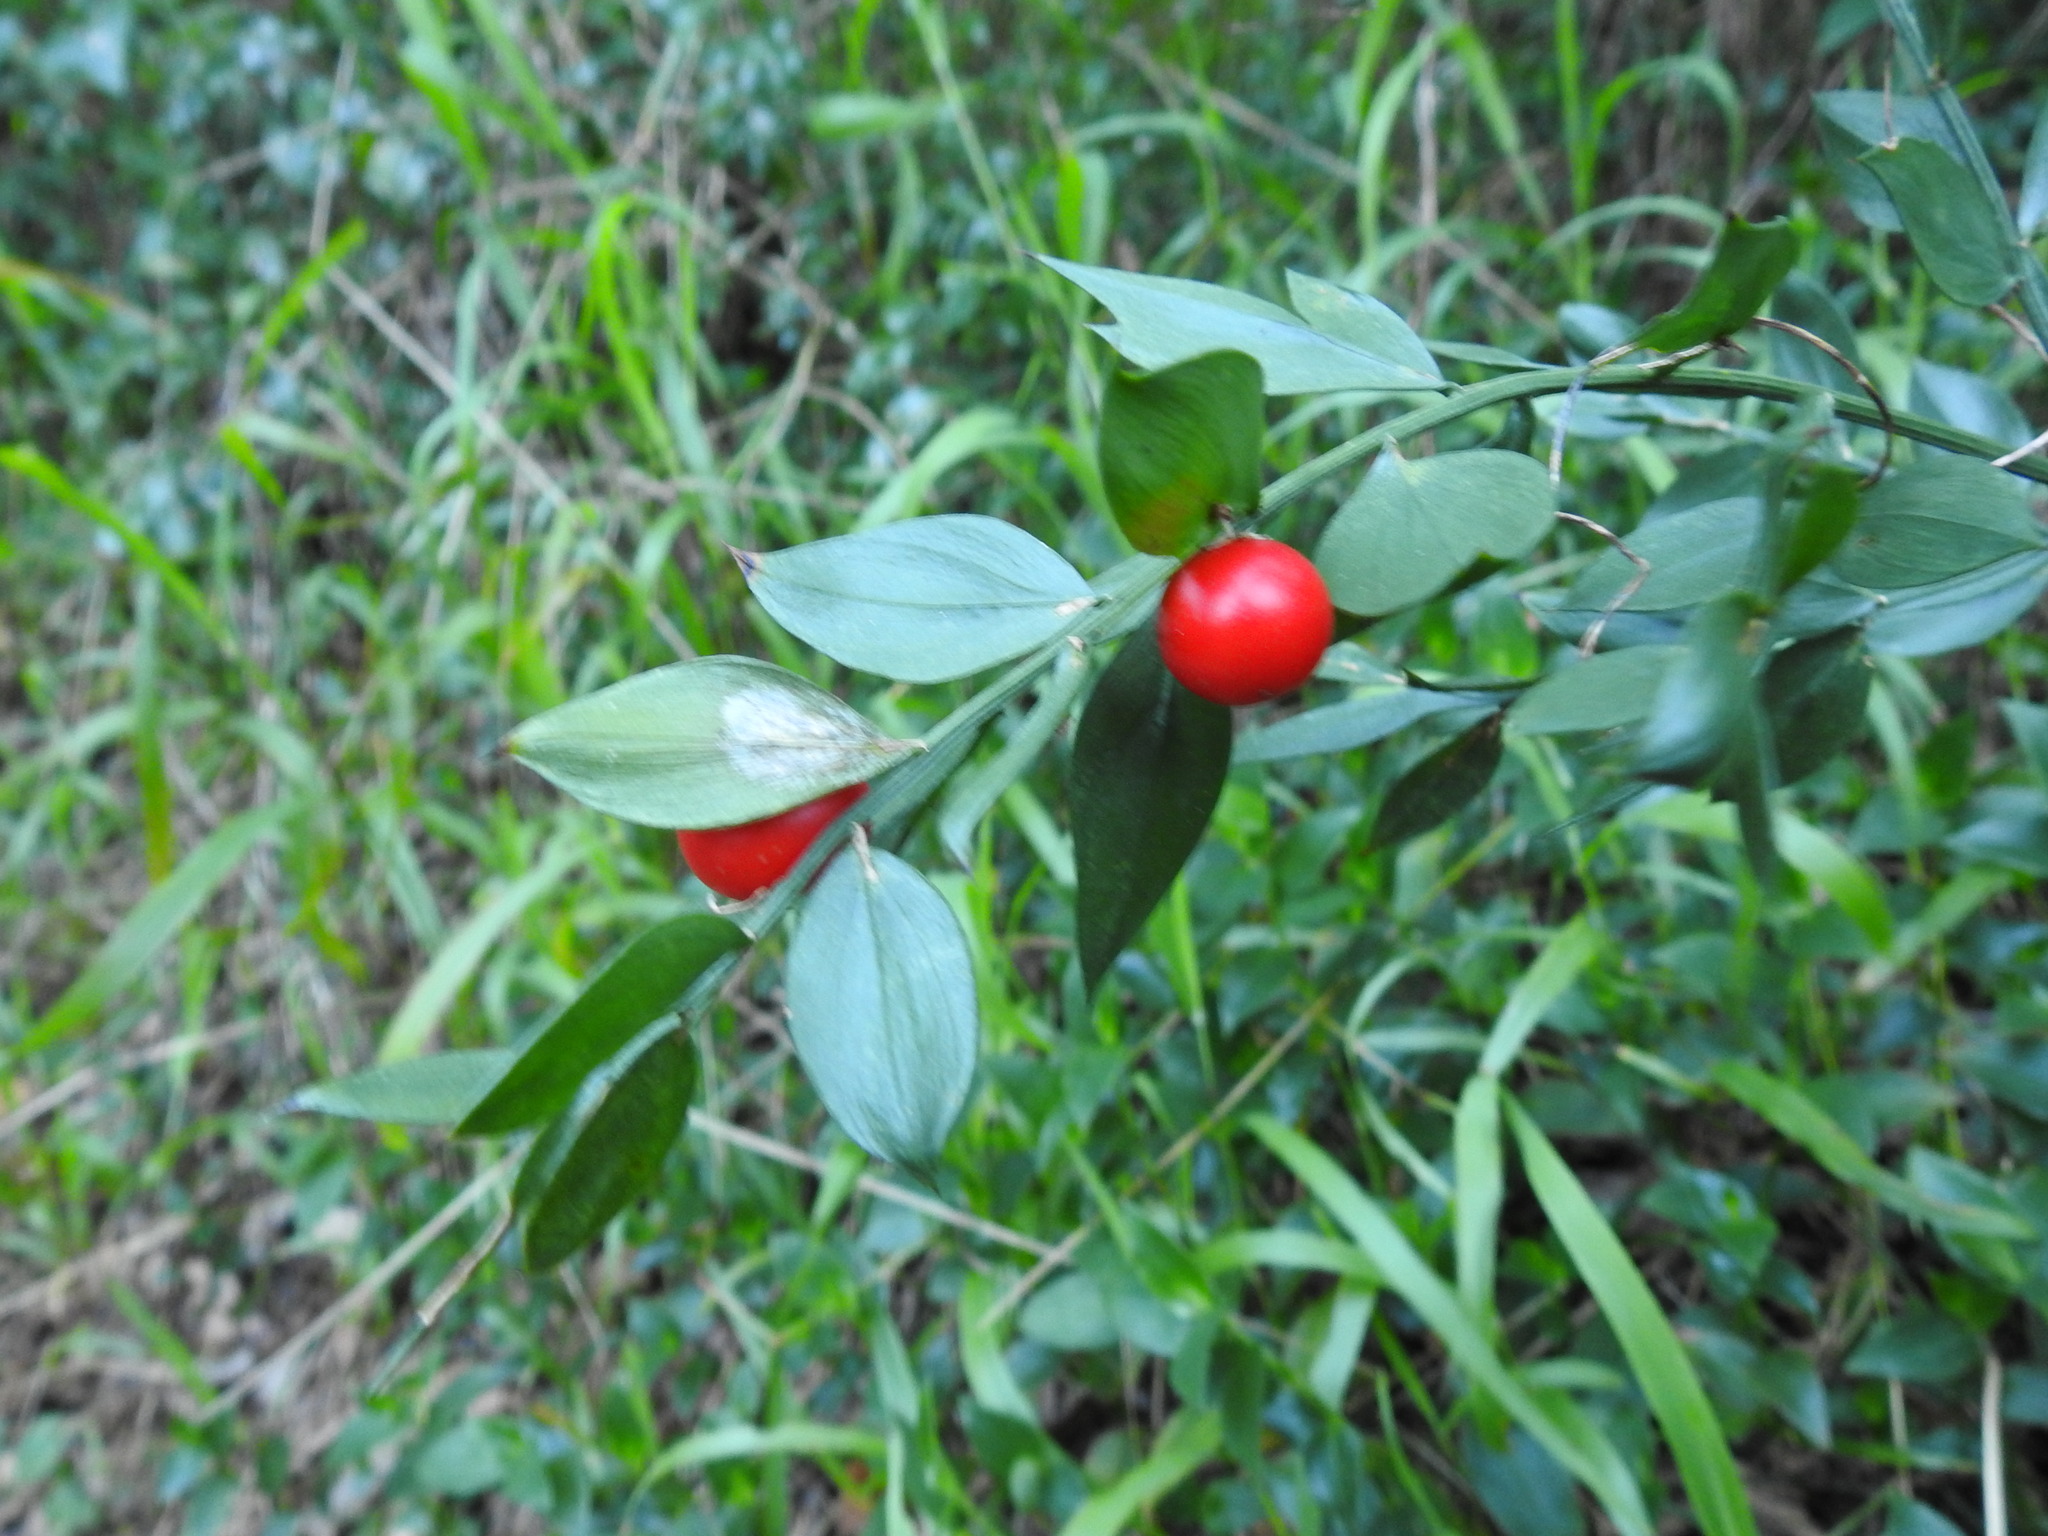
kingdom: Plantae
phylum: Tracheophyta
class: Liliopsida
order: Asparagales
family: Asparagaceae
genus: Ruscus
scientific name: Ruscus aculeatus
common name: Butcher's-broom
